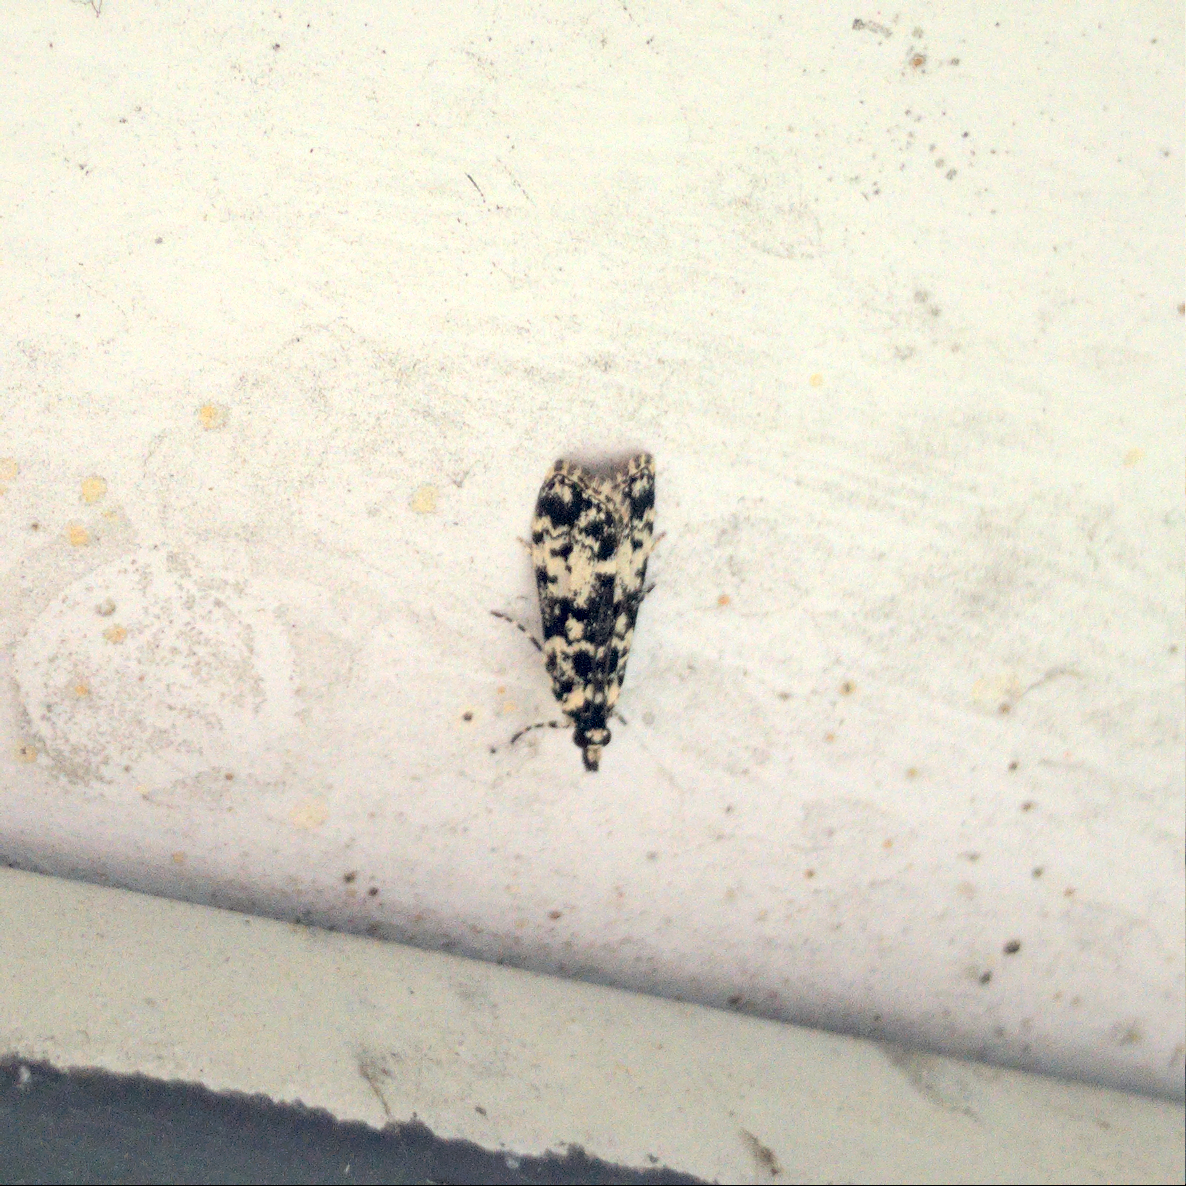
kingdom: Animalia
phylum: Arthropoda
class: Insecta
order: Lepidoptera
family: Crambidae
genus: Scoparia
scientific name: Scoparia exhibitalis
